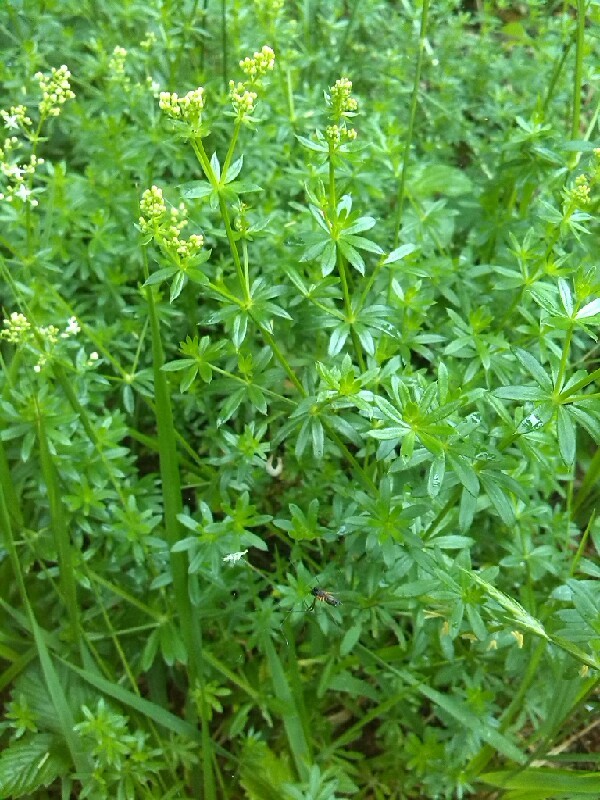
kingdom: Plantae
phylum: Tracheophyta
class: Magnoliopsida
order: Gentianales
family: Rubiaceae
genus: Galium
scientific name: Galium mollugo
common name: Hedge bedstraw
